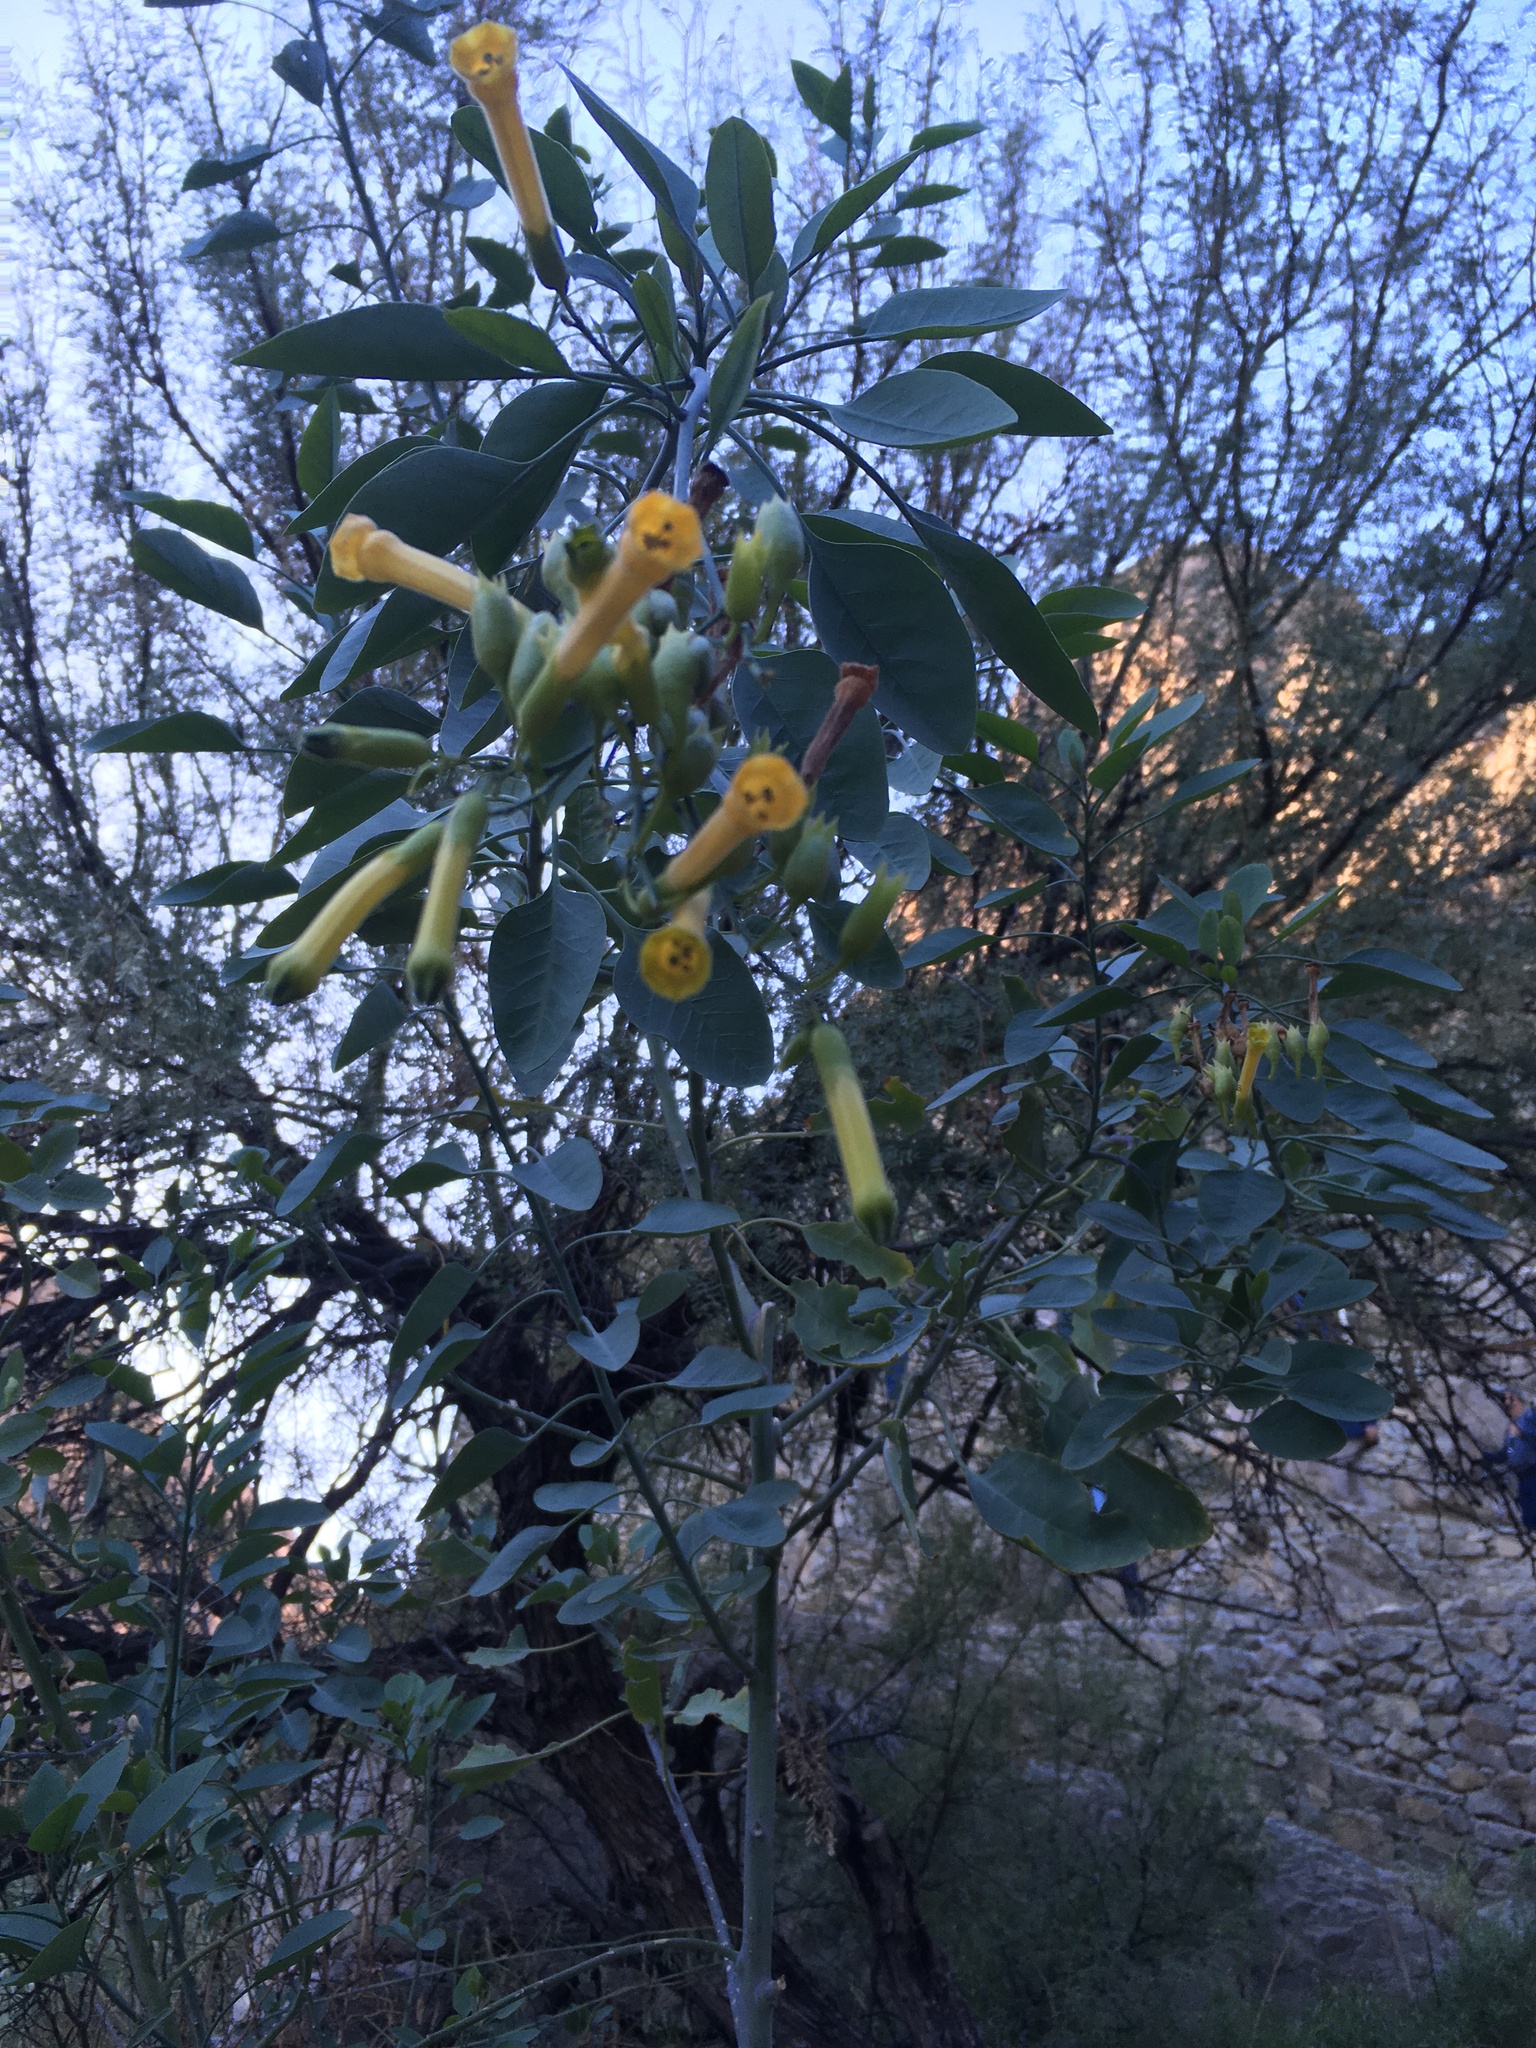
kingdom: Plantae
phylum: Tracheophyta
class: Magnoliopsida
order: Solanales
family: Solanaceae
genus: Nicotiana
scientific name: Nicotiana glauca
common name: Tree tobacco
